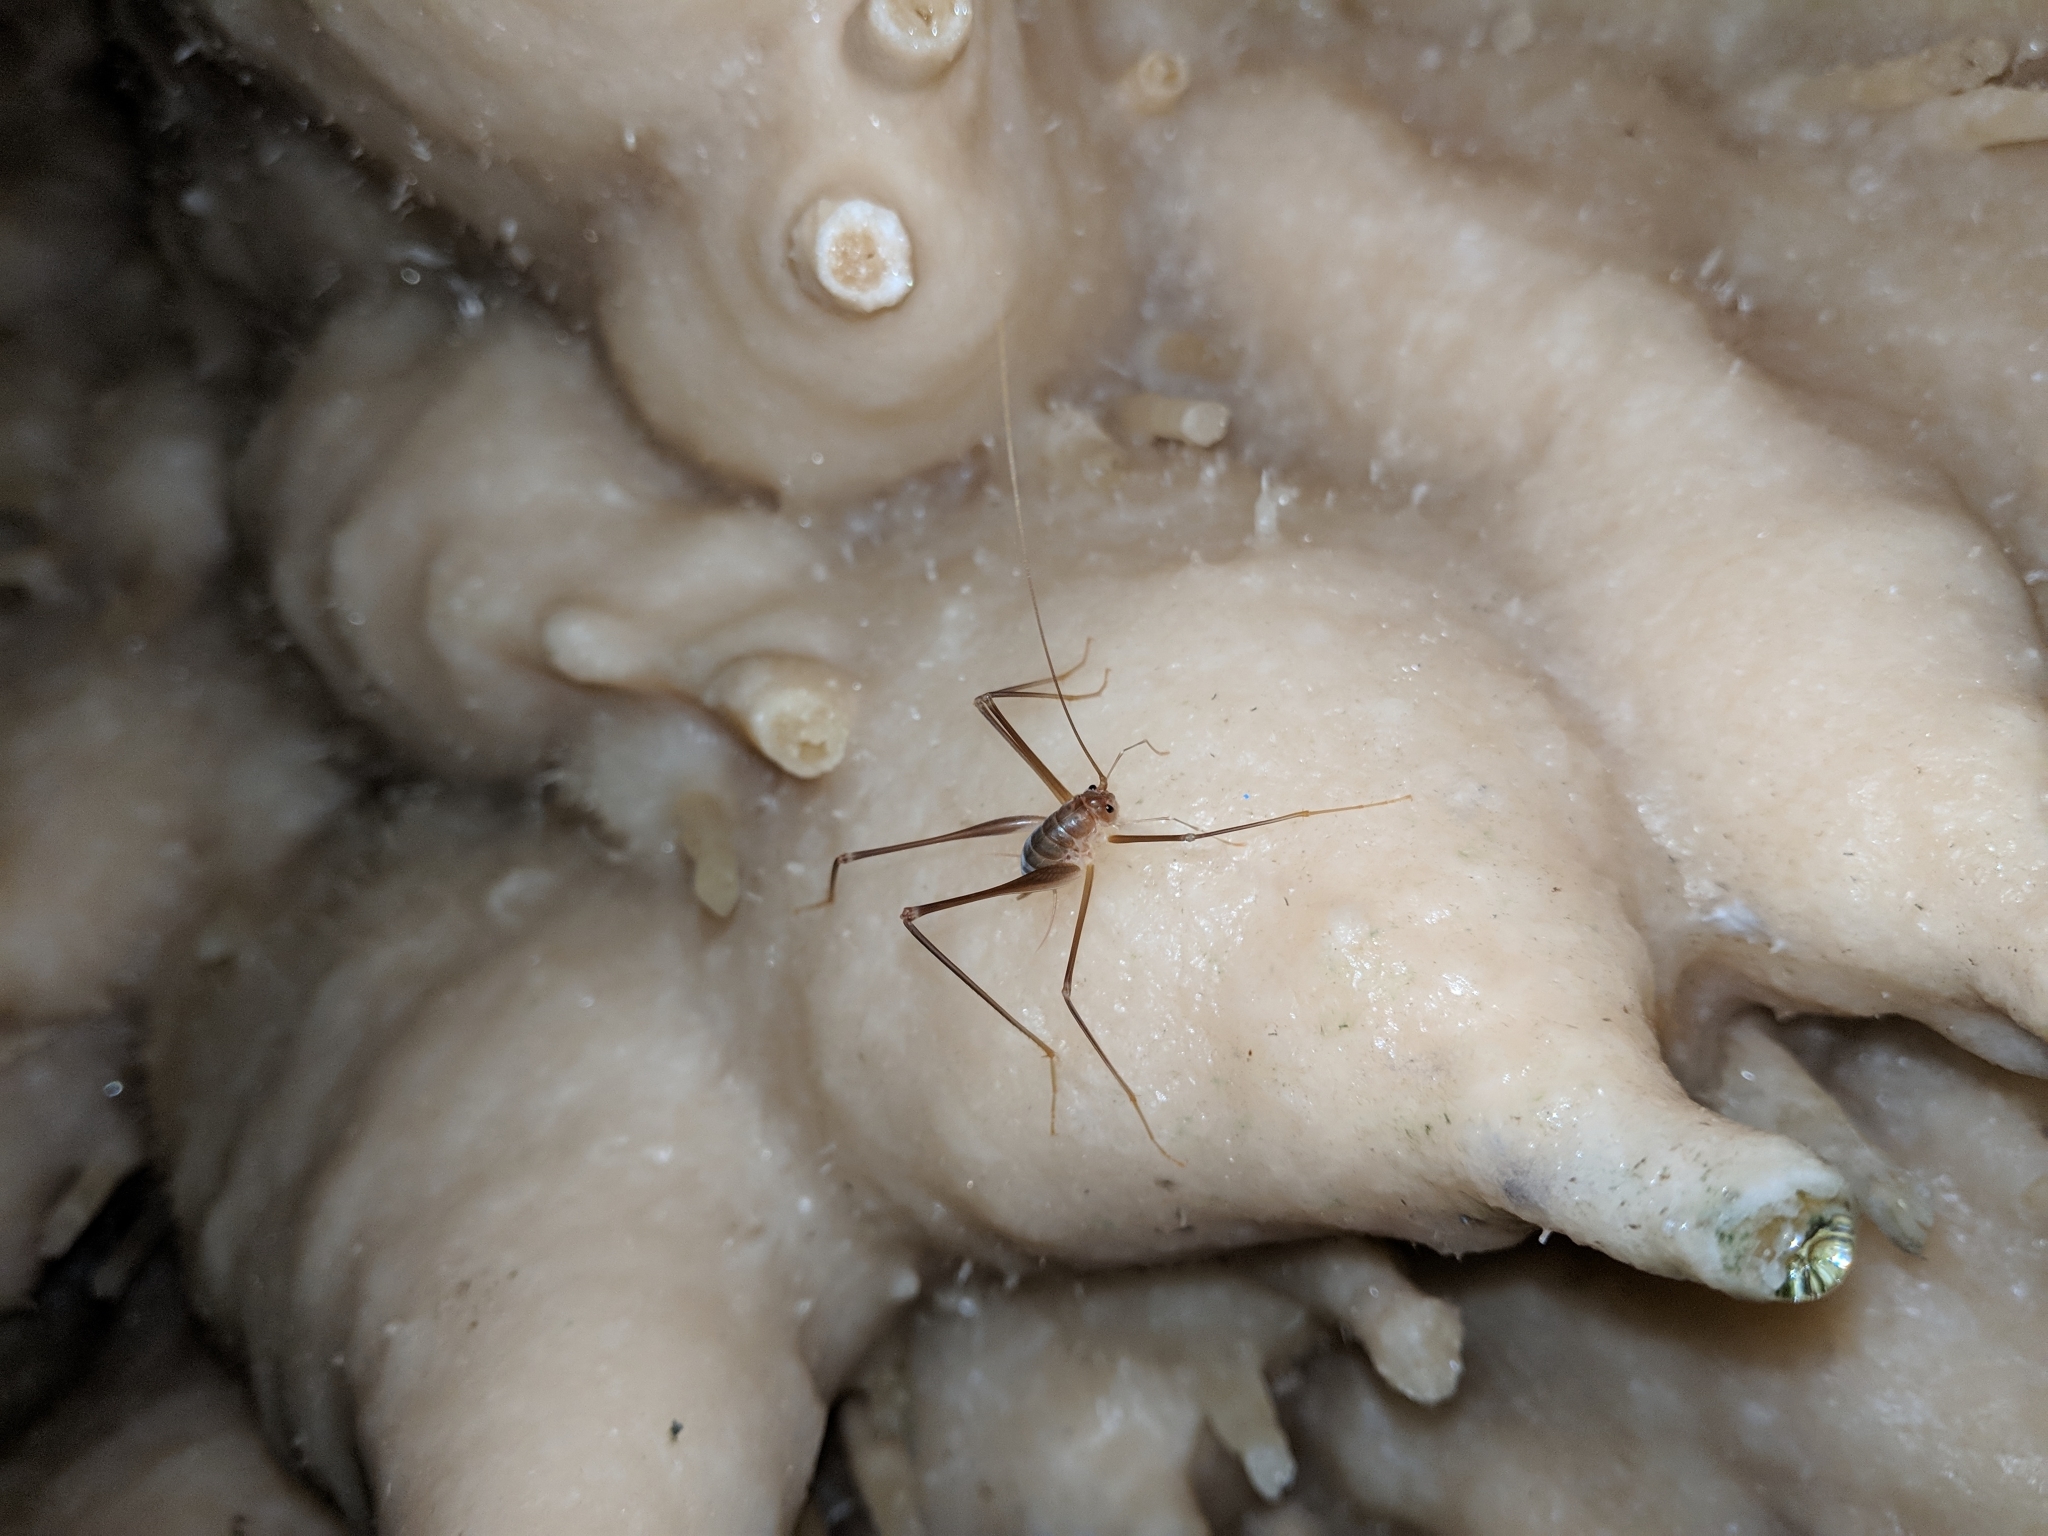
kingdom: Animalia
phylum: Arthropoda
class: Insecta
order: Orthoptera
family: Rhaphidophoridae
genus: Dolichopoda
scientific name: Dolichopoda unicolor
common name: Katafygi cave-cricket
